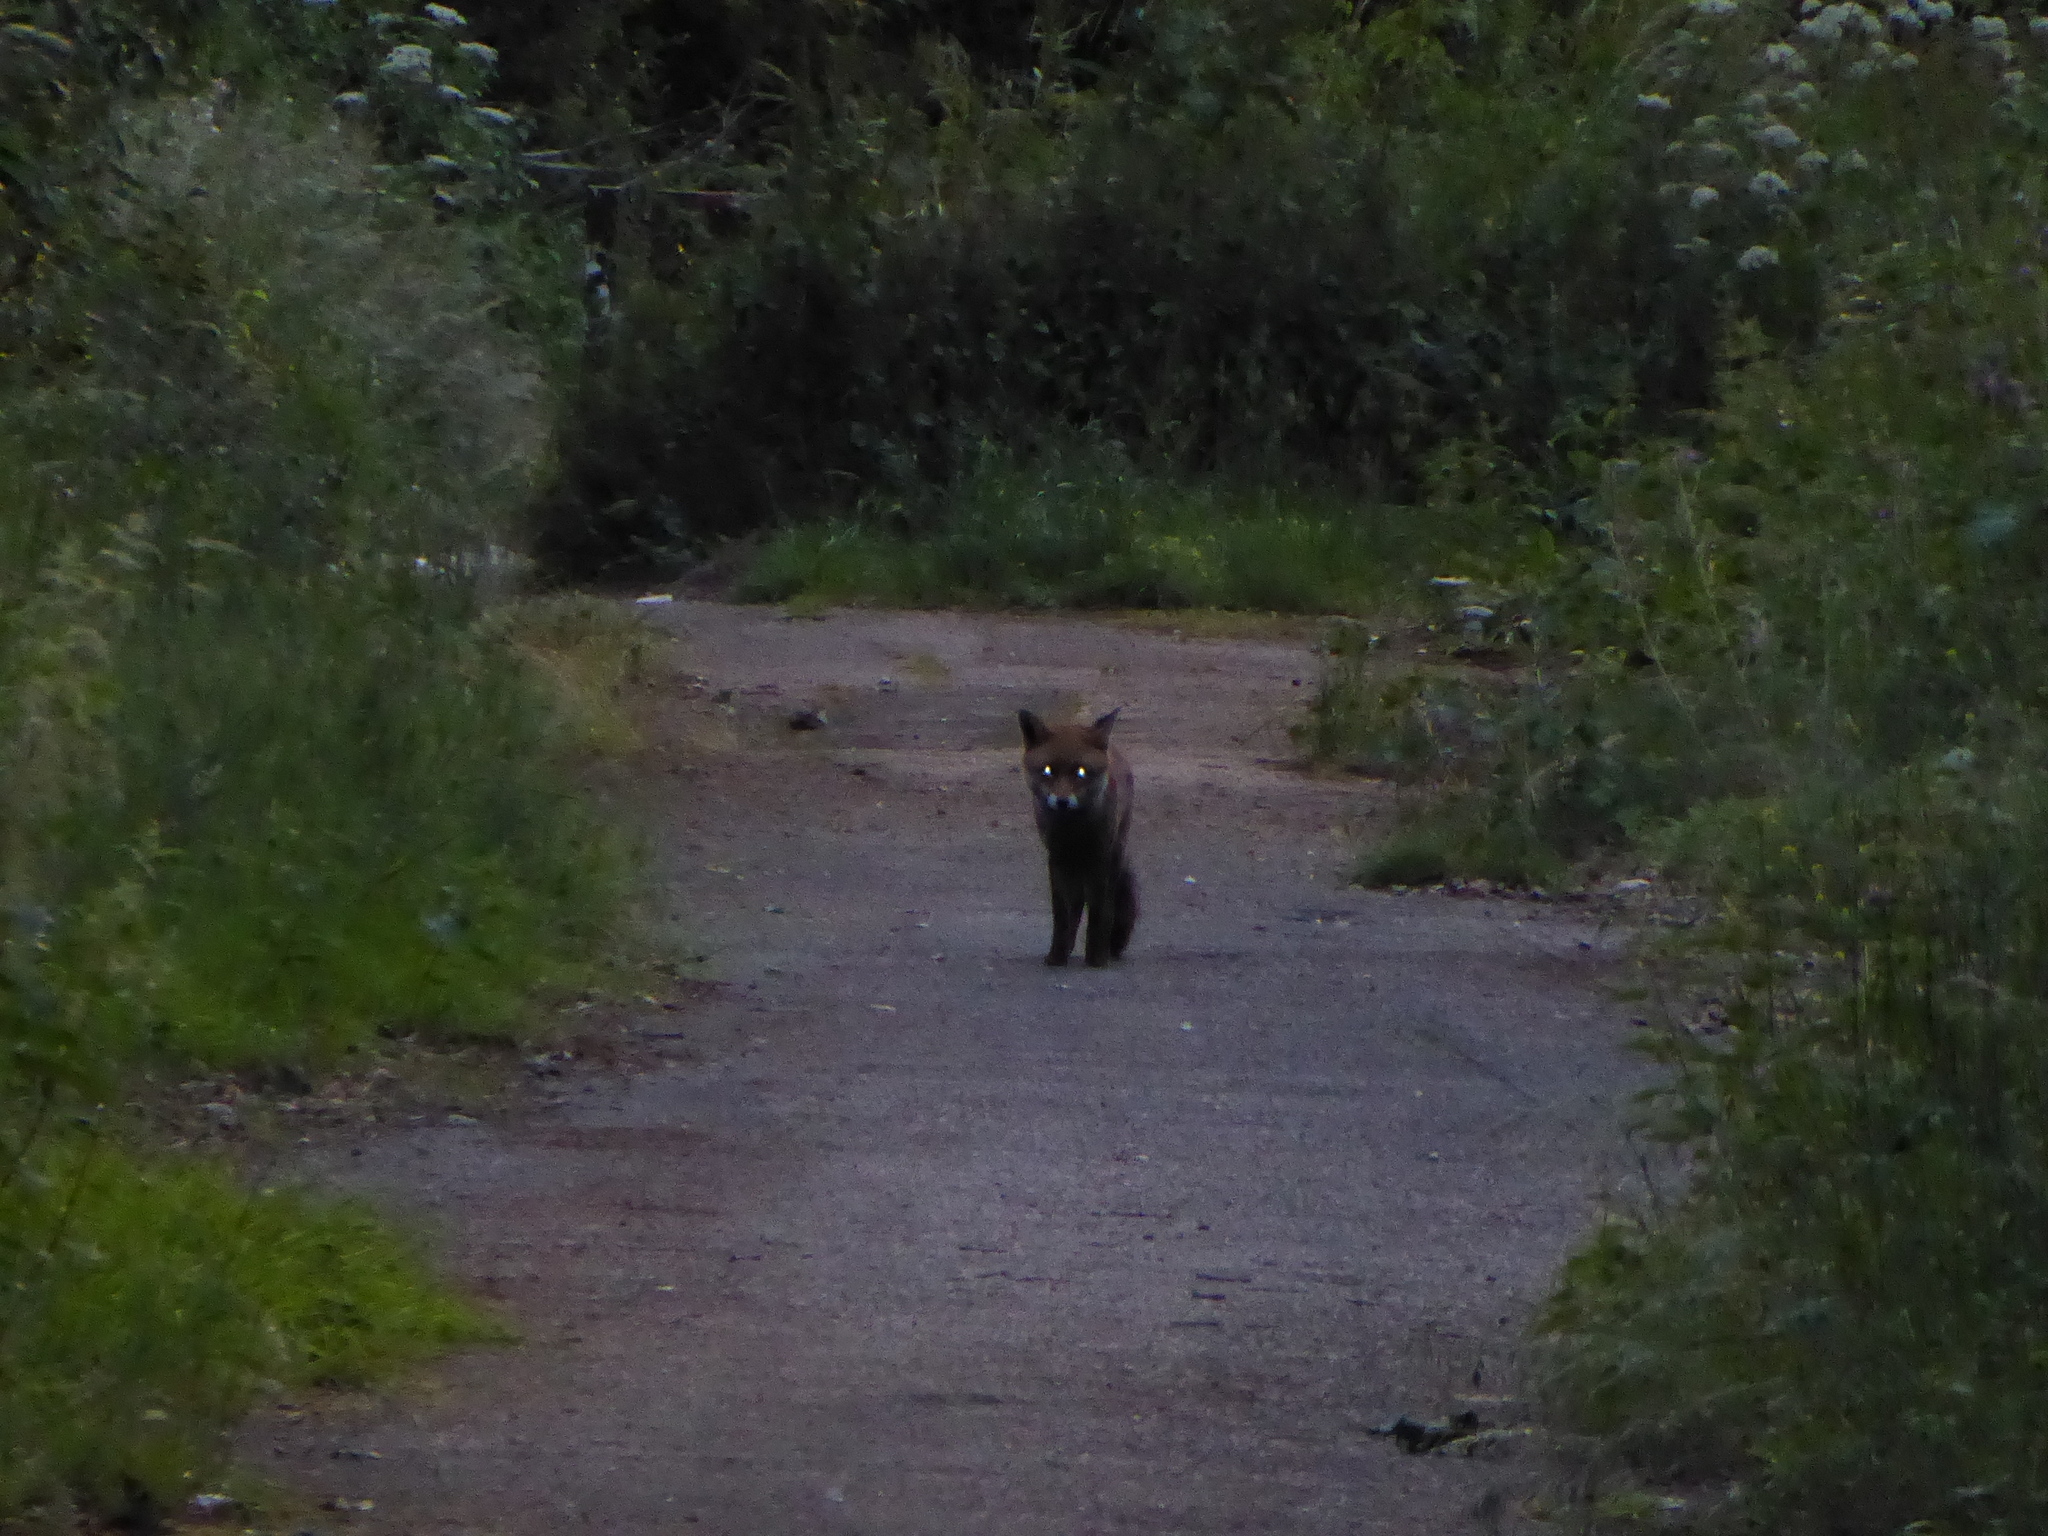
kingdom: Animalia
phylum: Chordata
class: Mammalia
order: Carnivora
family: Canidae
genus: Vulpes
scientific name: Vulpes vulpes
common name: Red fox
